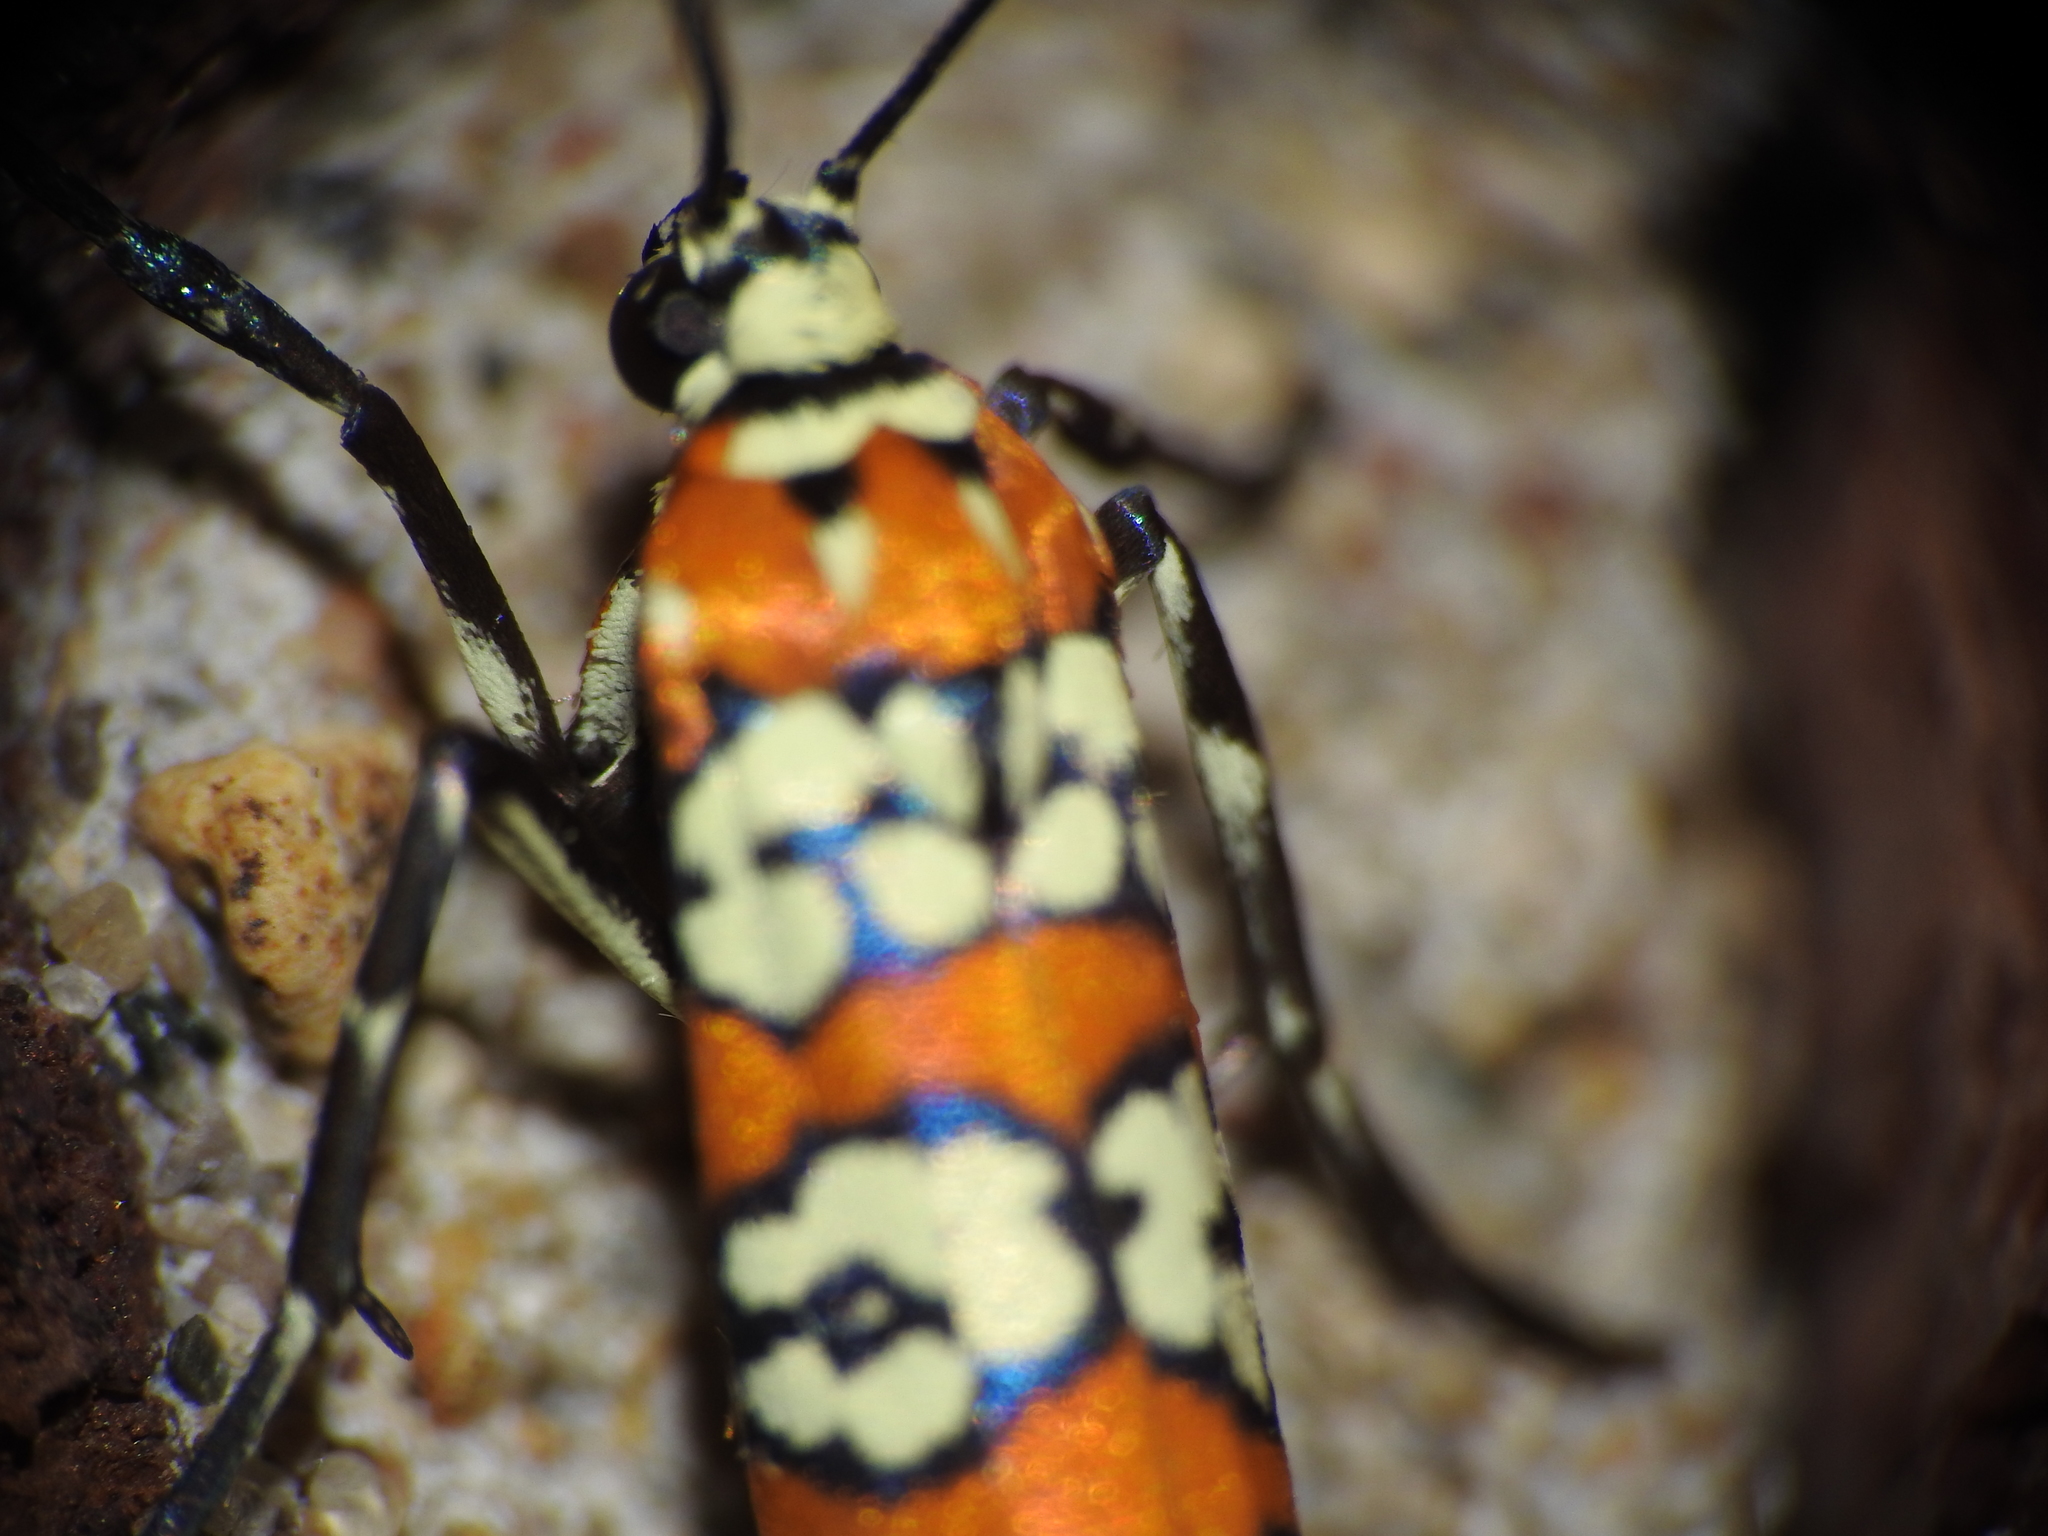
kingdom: Animalia
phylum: Arthropoda
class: Insecta
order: Lepidoptera
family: Attevidae
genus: Atteva
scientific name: Atteva punctella
